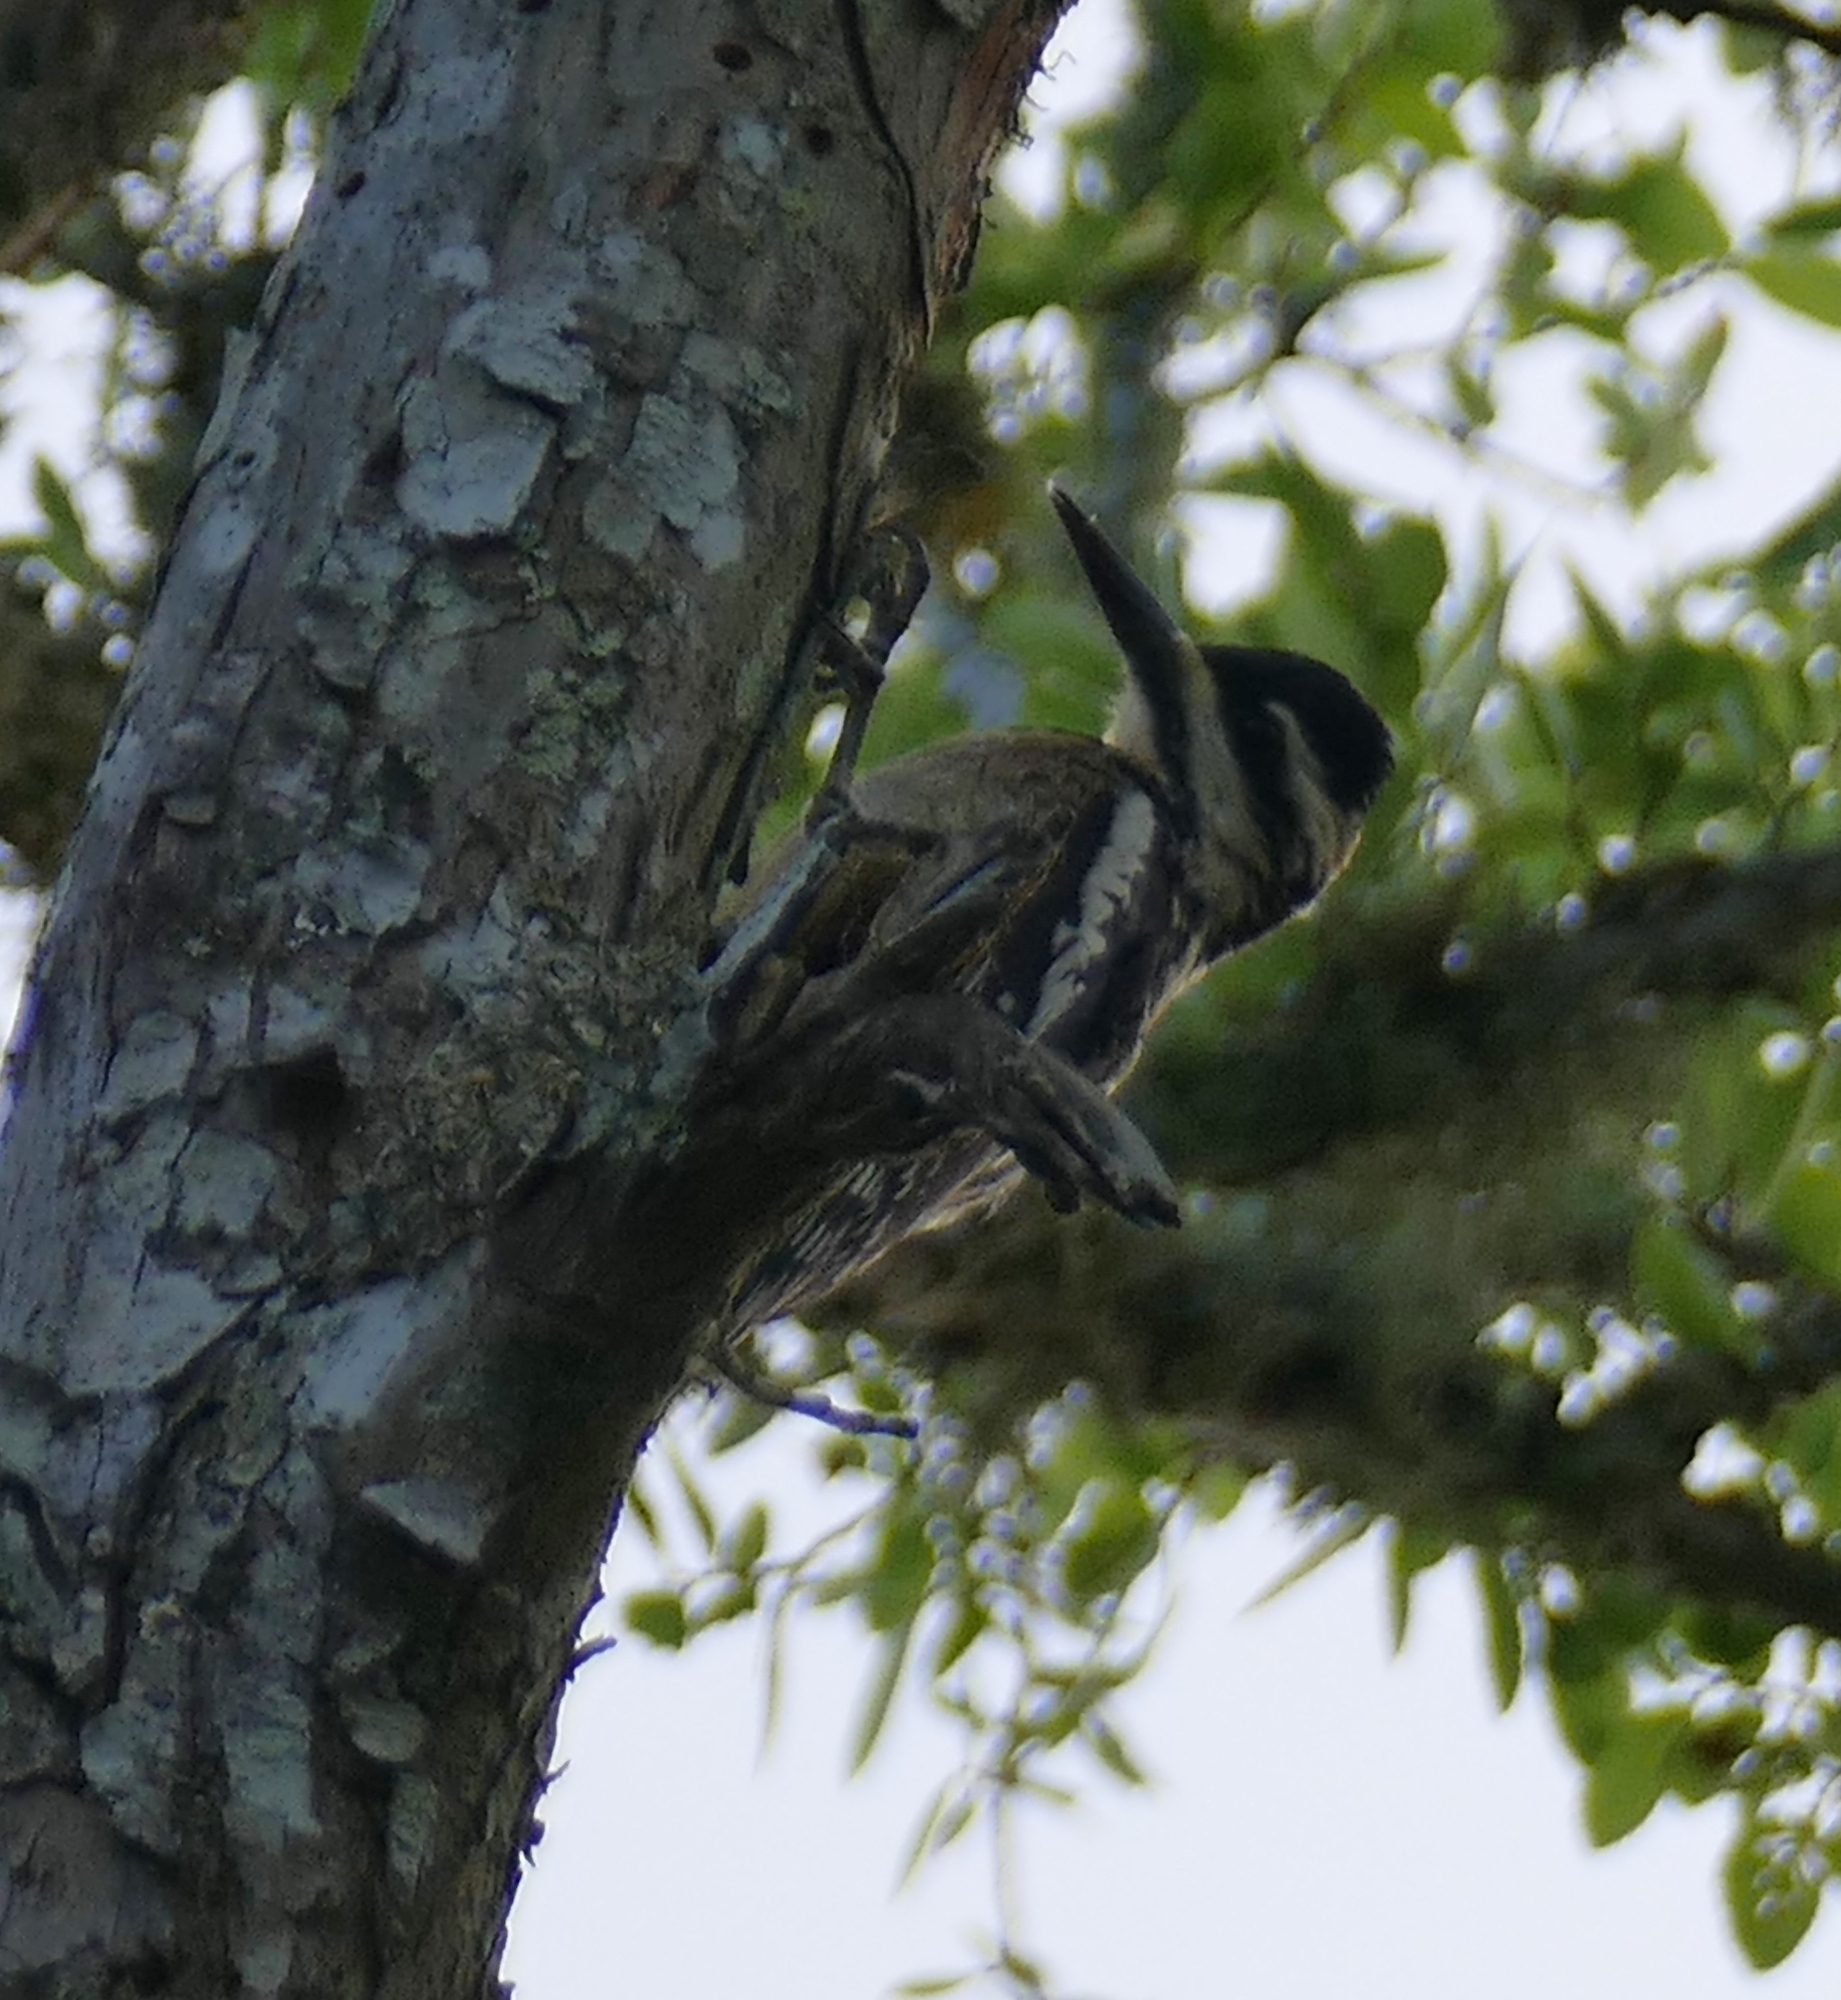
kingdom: Animalia
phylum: Chordata
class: Aves
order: Piciformes
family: Picidae
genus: Sphyrapicus
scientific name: Sphyrapicus varius
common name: Yellow-bellied sapsucker
